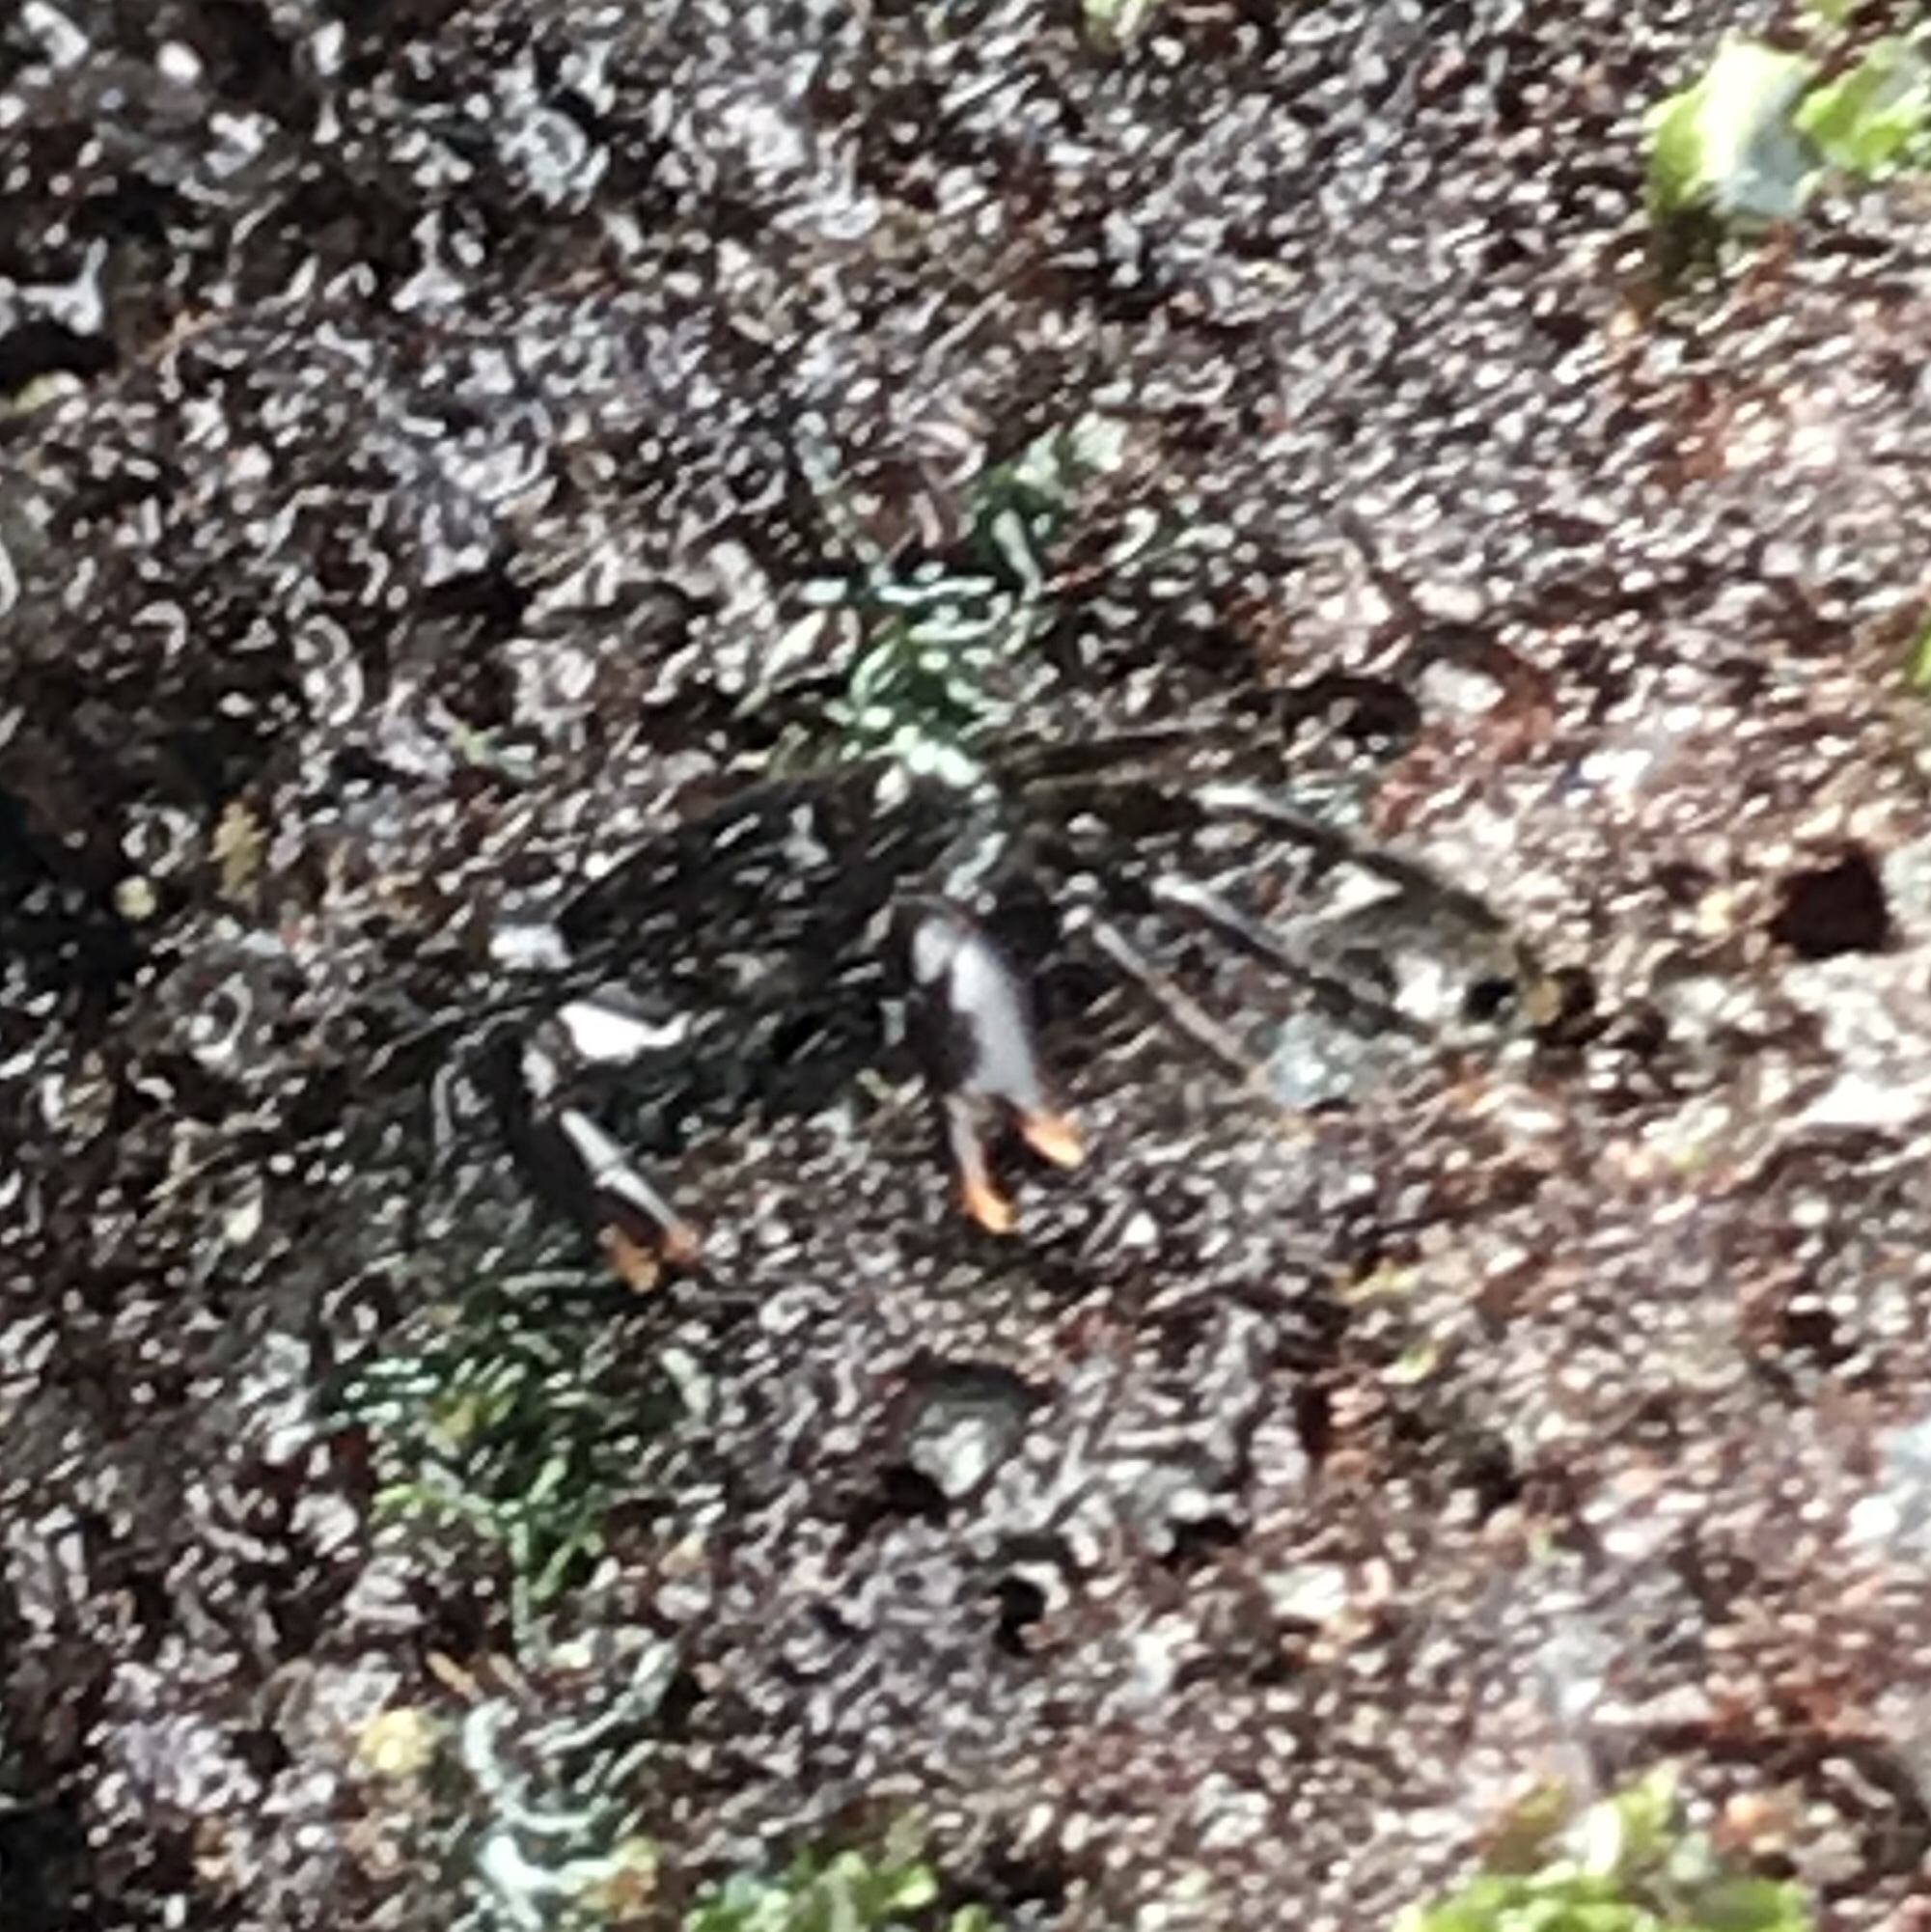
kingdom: Animalia
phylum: Arthropoda
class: Malacostraca
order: Decapoda
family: Grapsidae
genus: Metopograpsus
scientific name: Metopograpsus thukuhar
